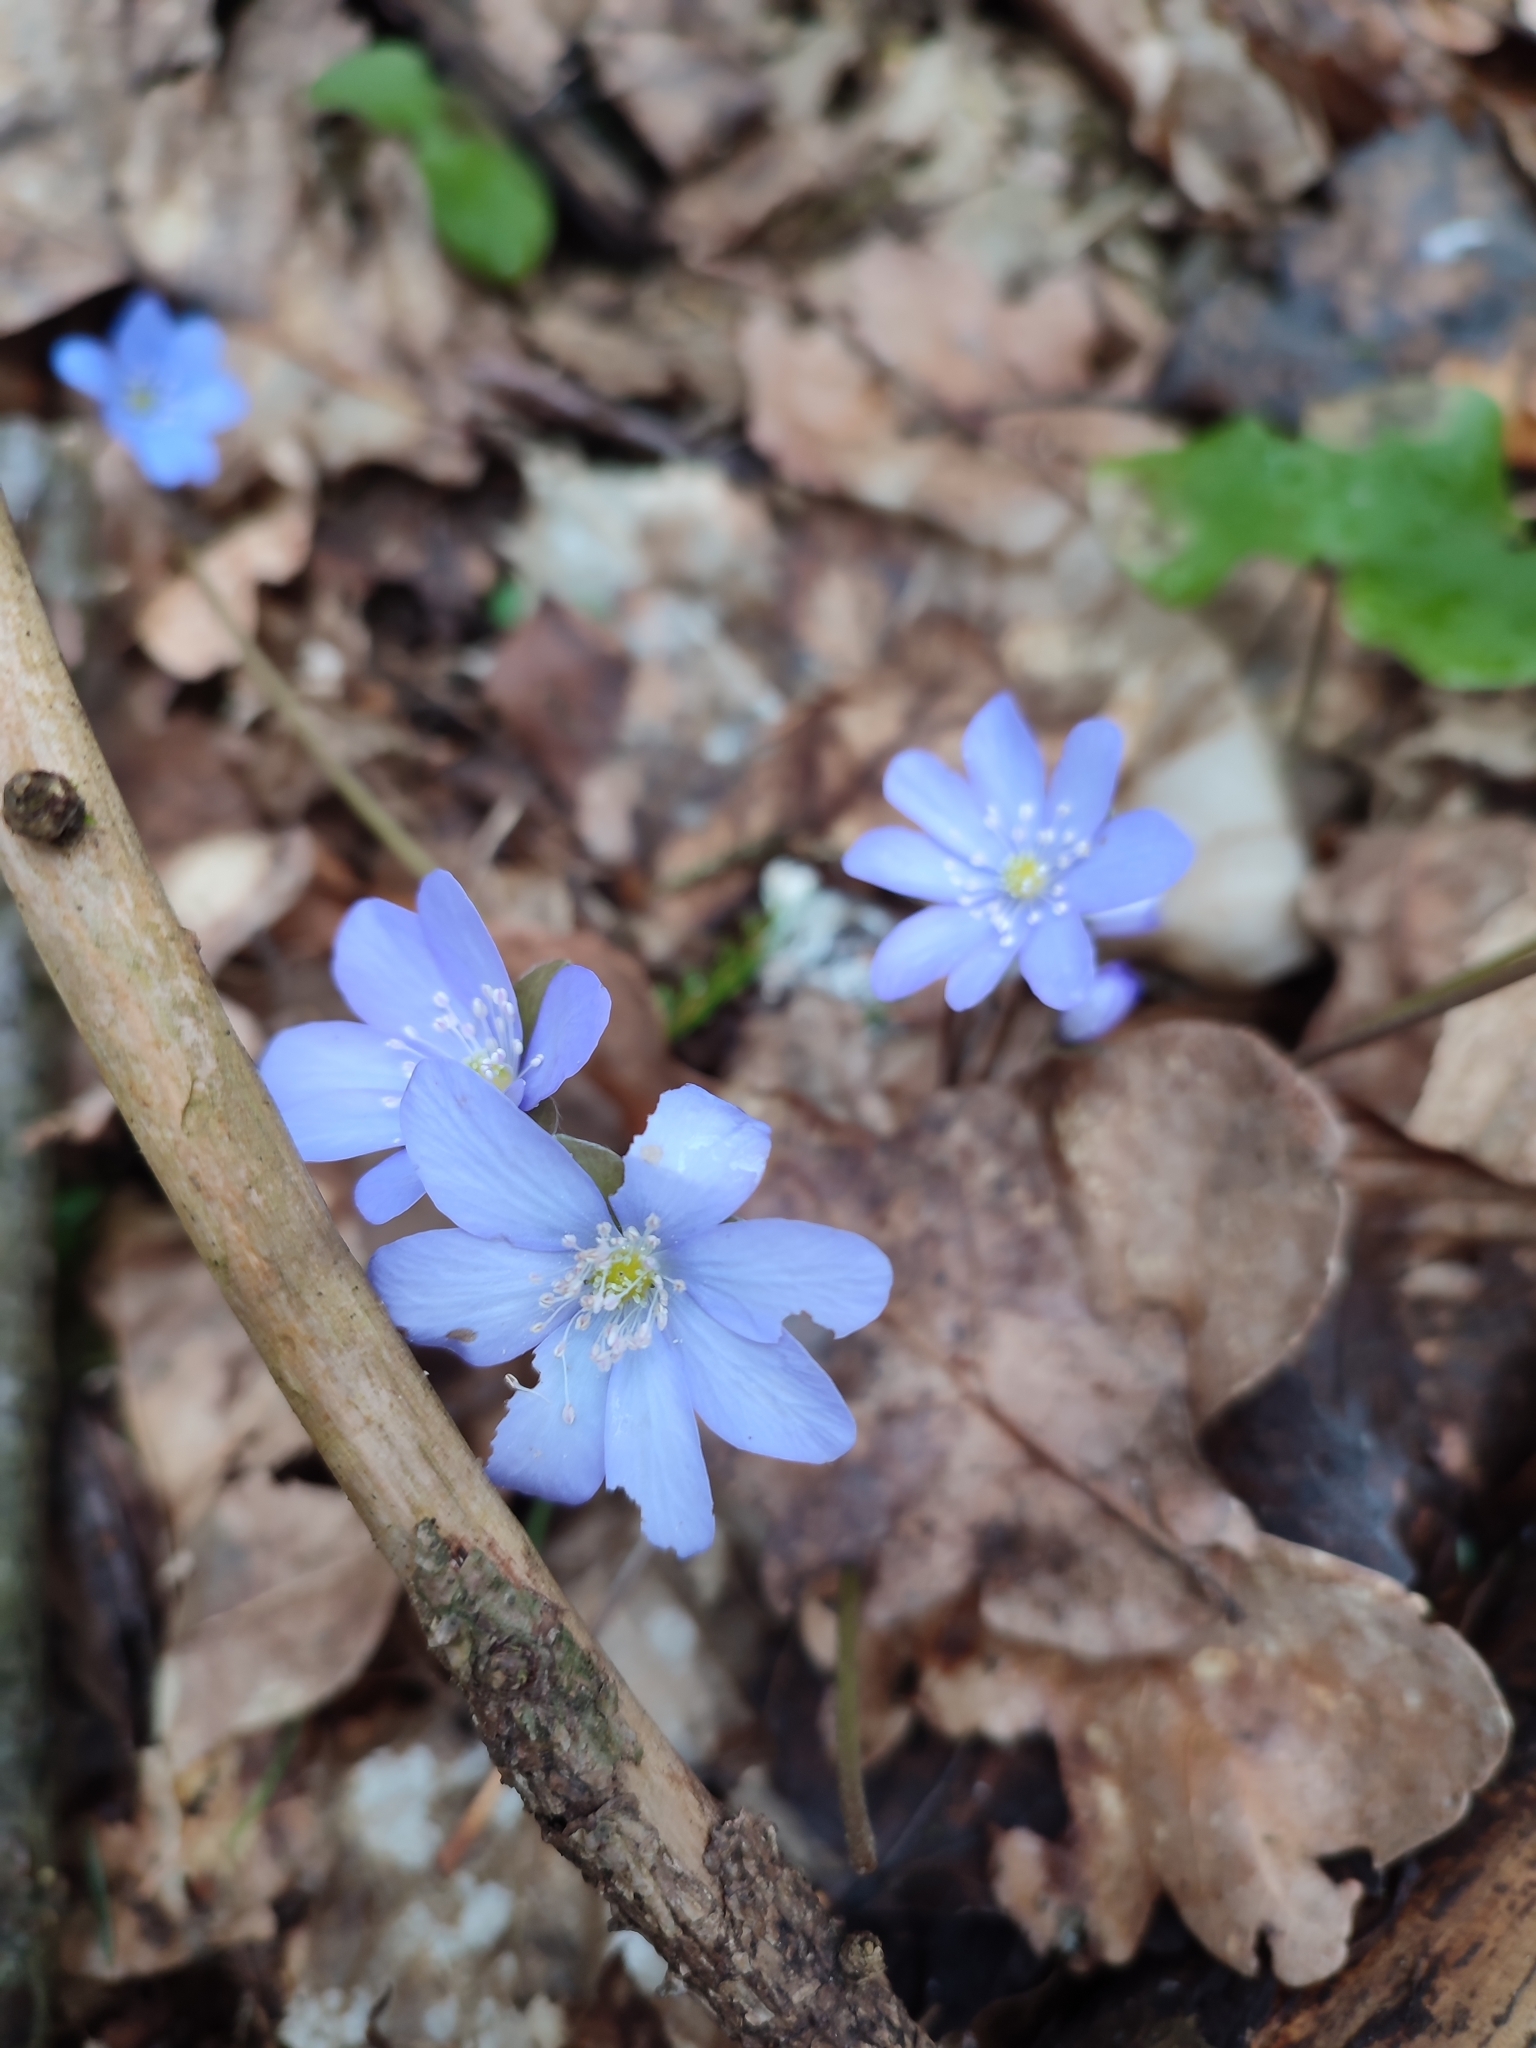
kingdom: Plantae
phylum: Tracheophyta
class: Magnoliopsida
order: Ranunculales
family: Ranunculaceae
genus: Hepatica
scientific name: Hepatica nobilis
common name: Liverleaf
